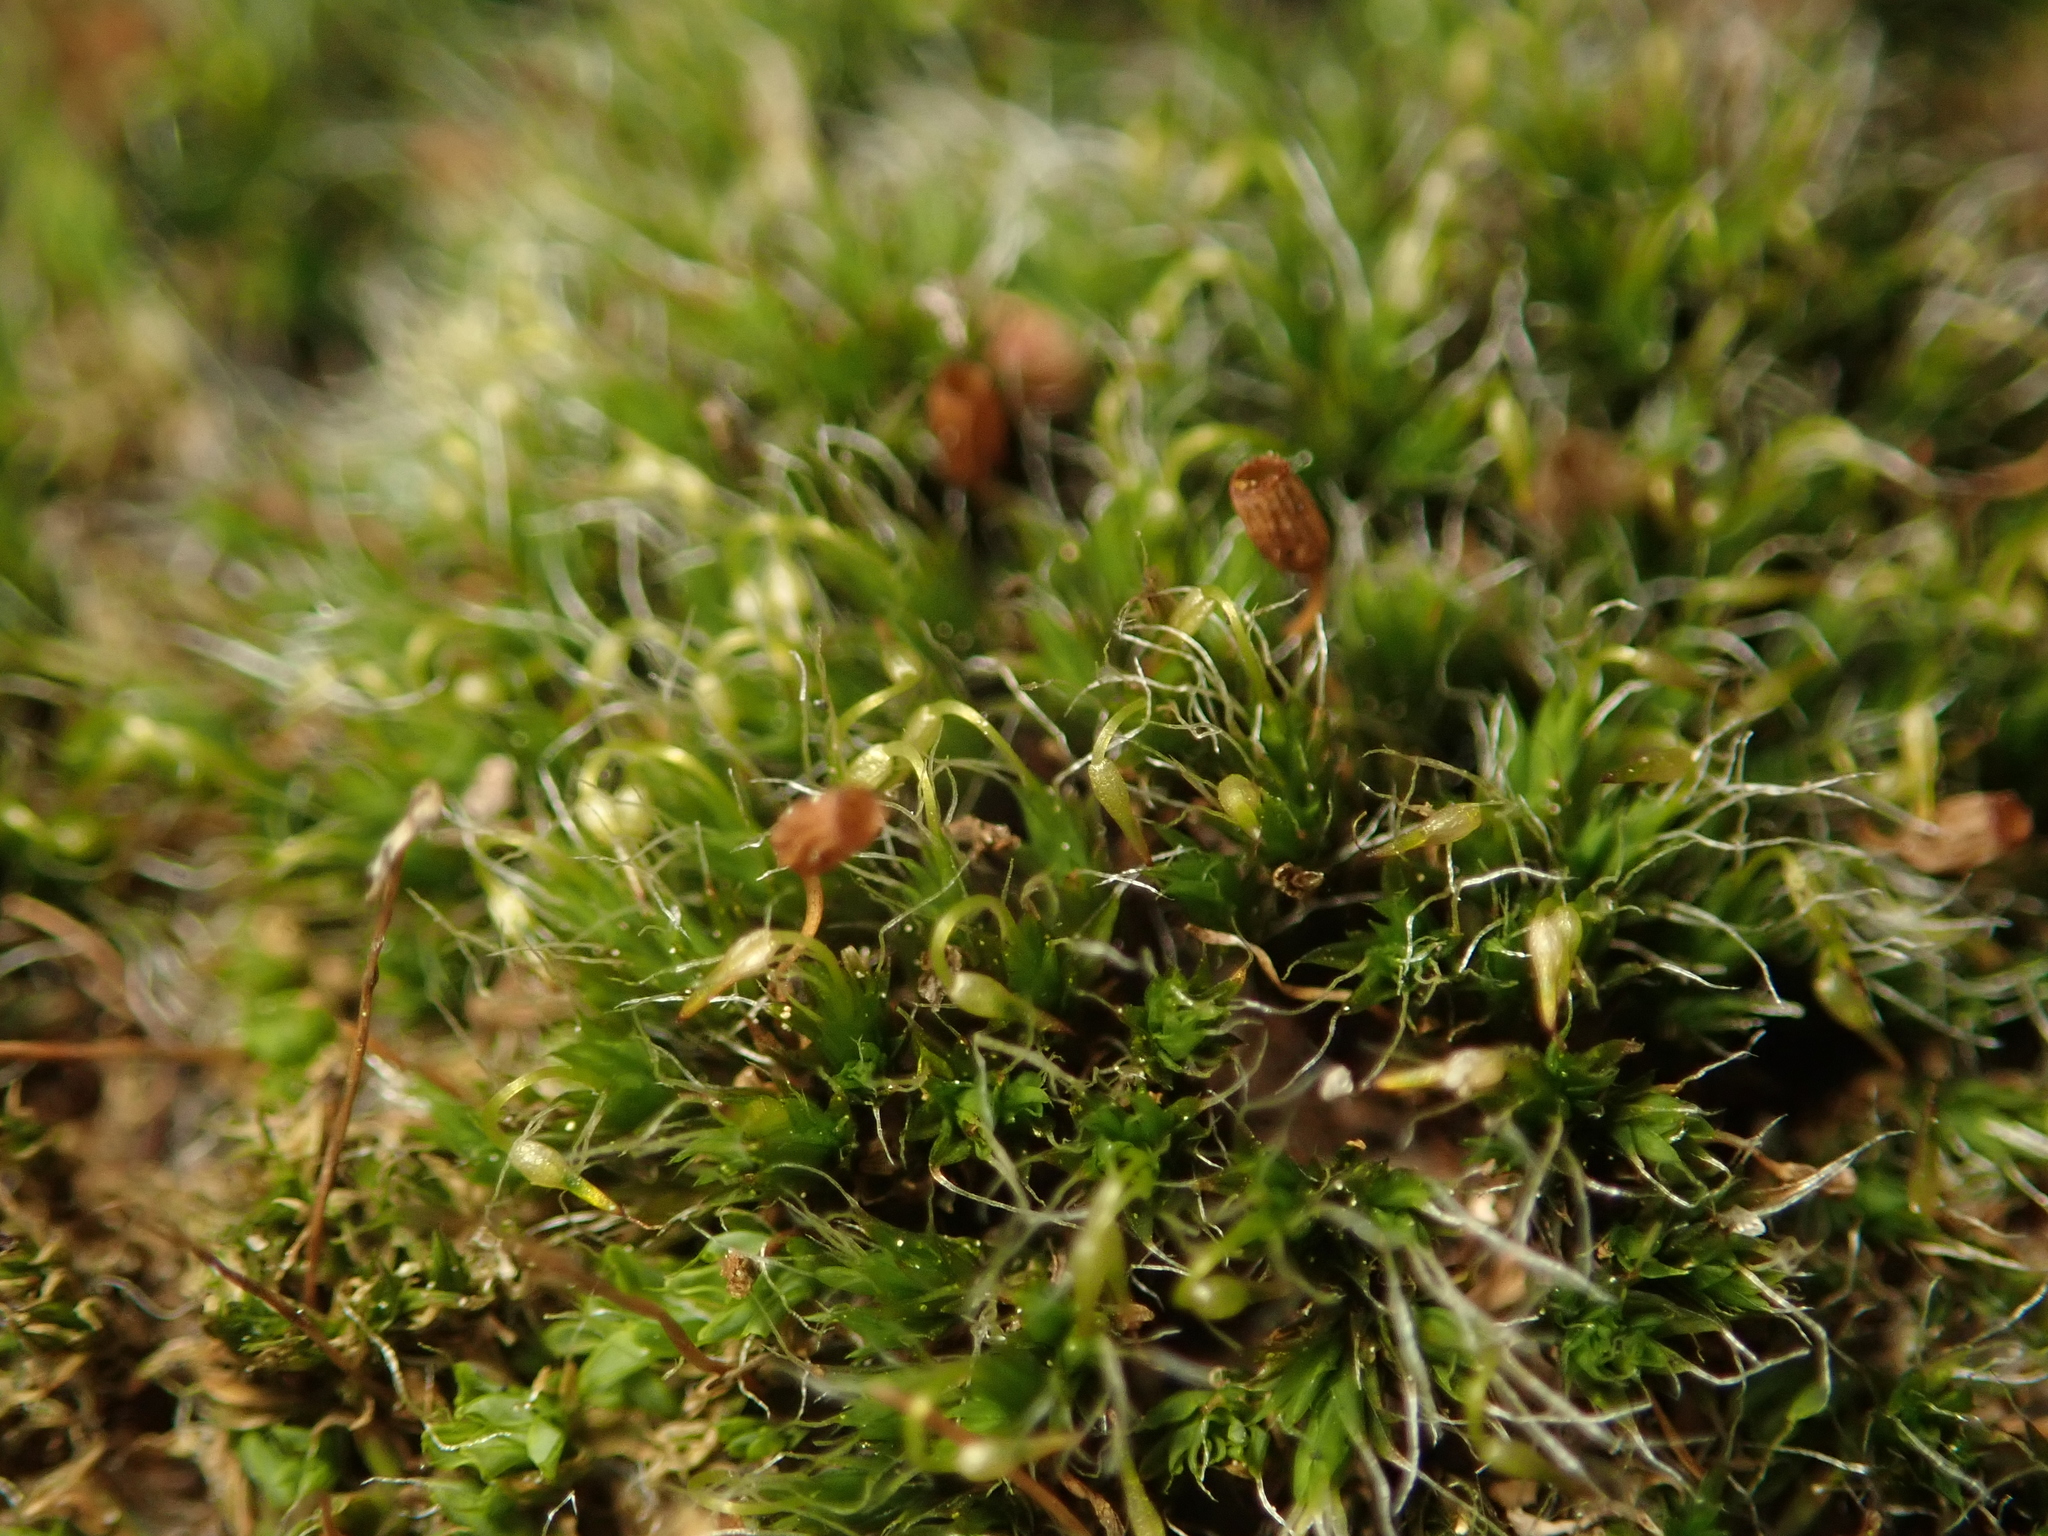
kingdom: Plantae
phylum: Bryophyta
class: Bryopsida
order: Grimmiales
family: Grimmiaceae
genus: Grimmia
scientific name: Grimmia pulvinata
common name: Grey-cushioned grimmia
